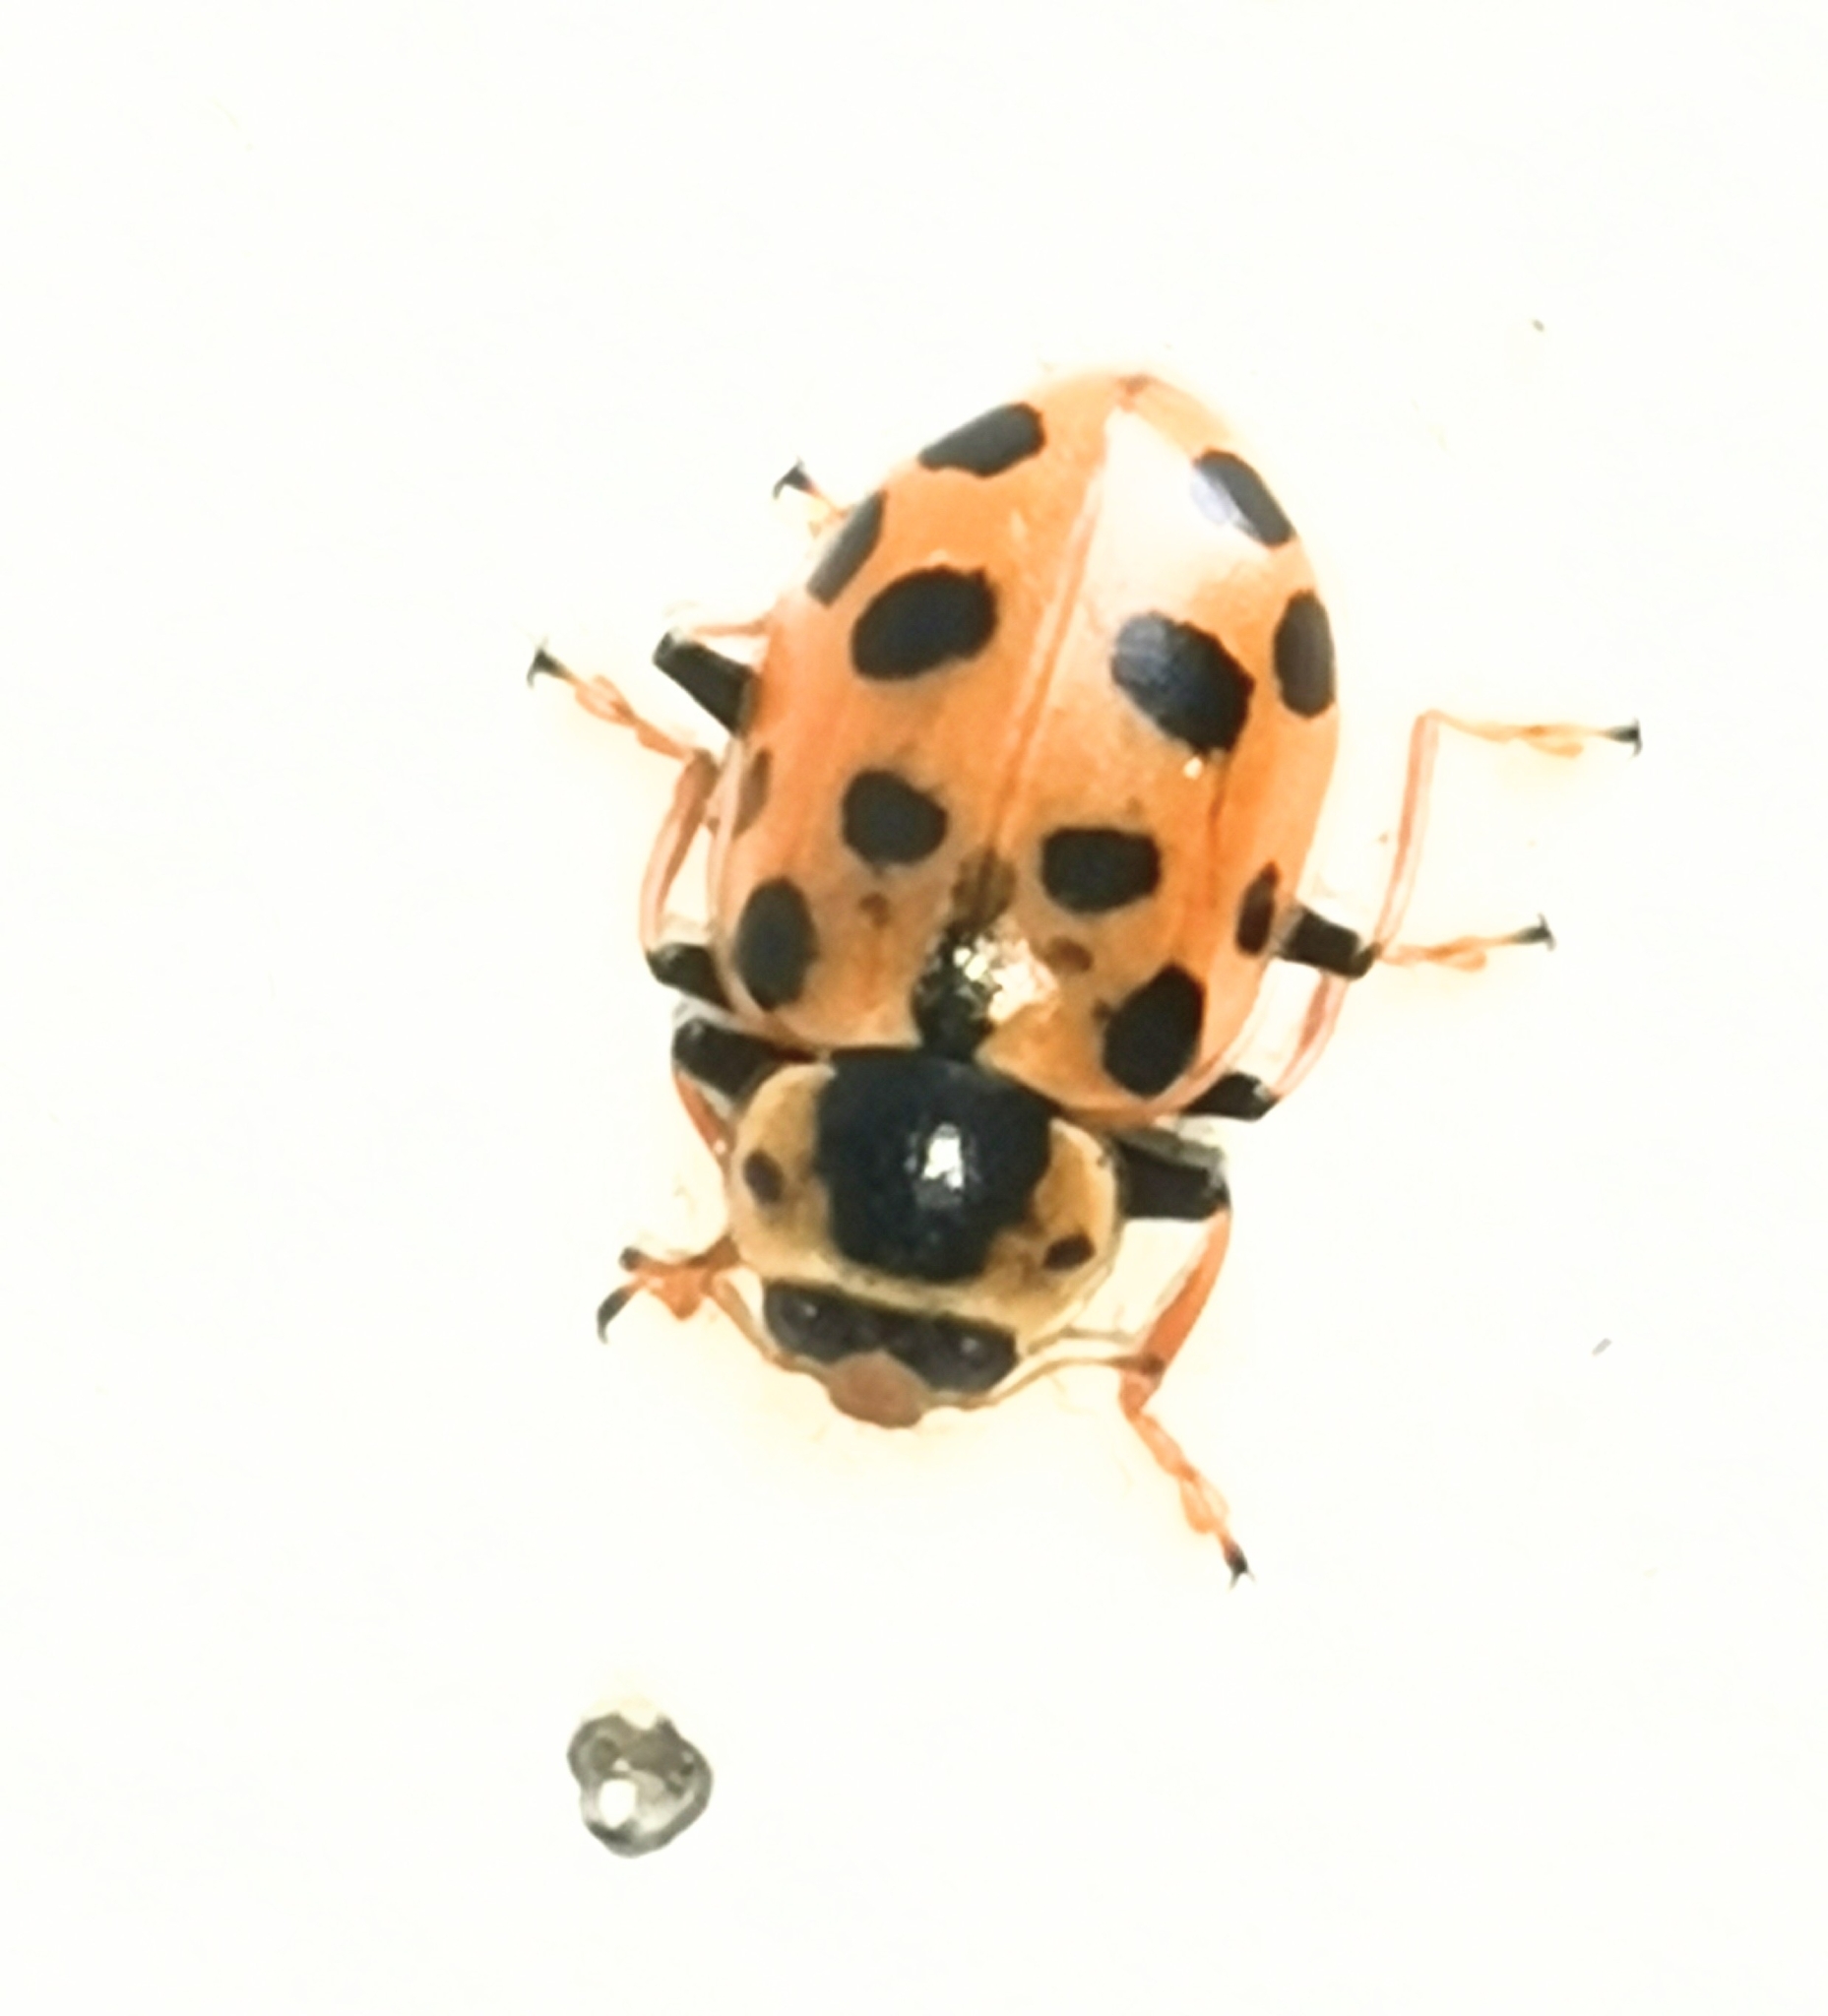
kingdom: Animalia
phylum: Arthropoda
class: Insecta
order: Coleoptera
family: Coccinellidae
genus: Hippodamia
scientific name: Hippodamia tredecimpunctata
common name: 13-spot ladybird
